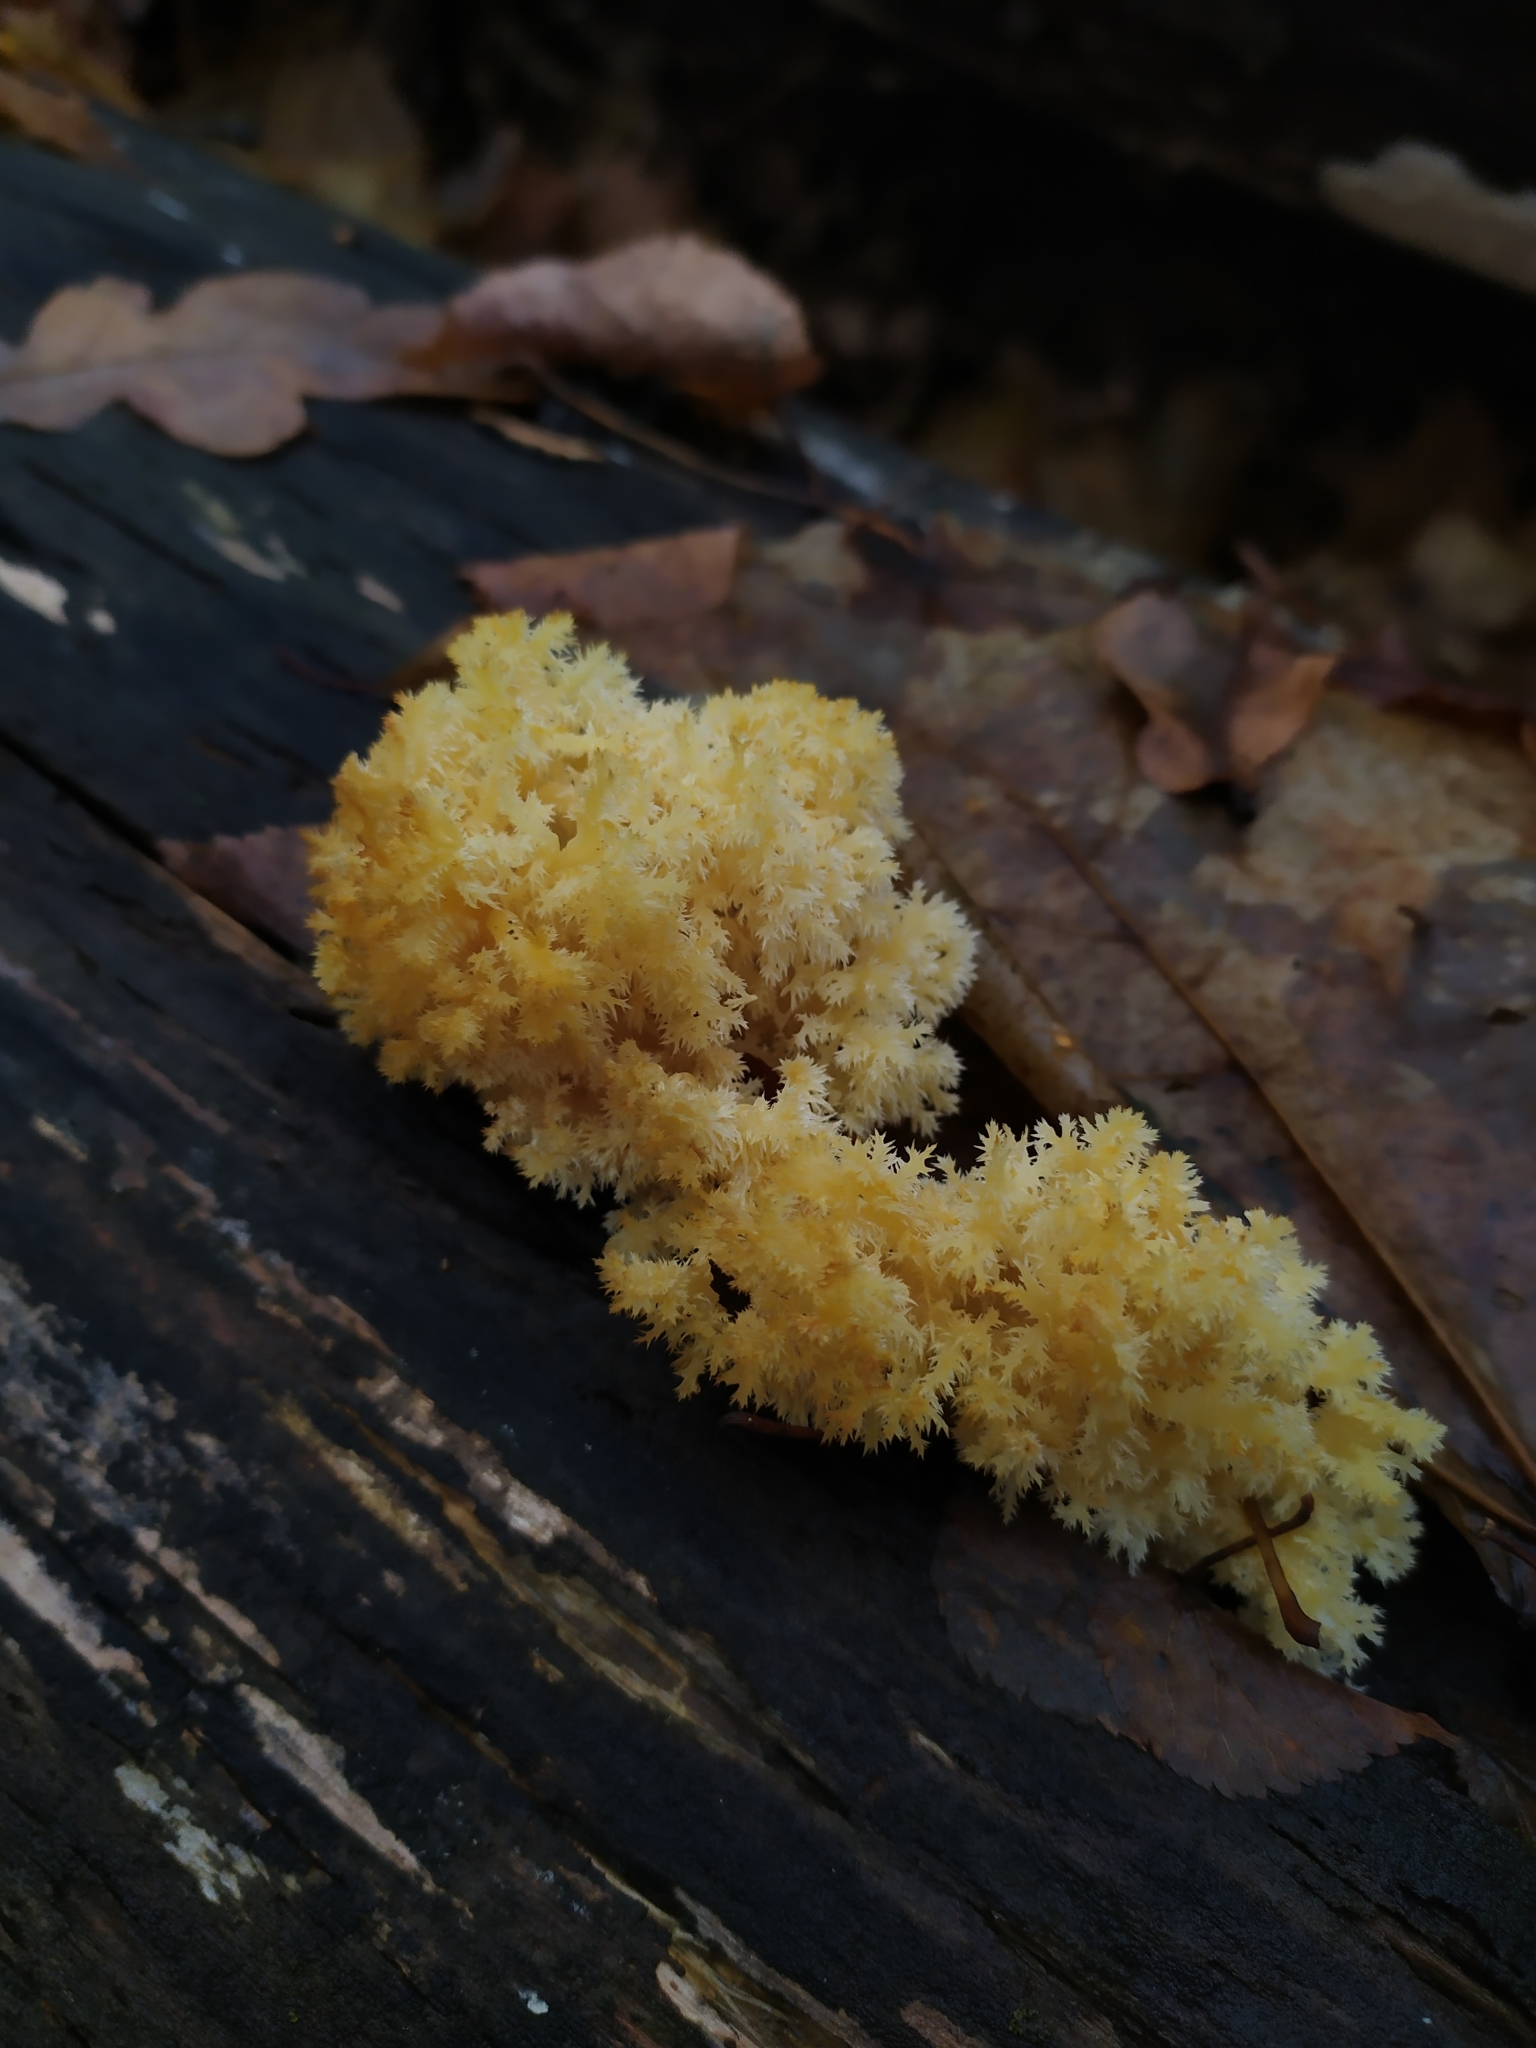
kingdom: Fungi
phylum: Basidiomycota
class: Agaricomycetes
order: Russulales
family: Hericiaceae
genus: Hericium
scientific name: Hericium coralloides
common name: Coral tooth
